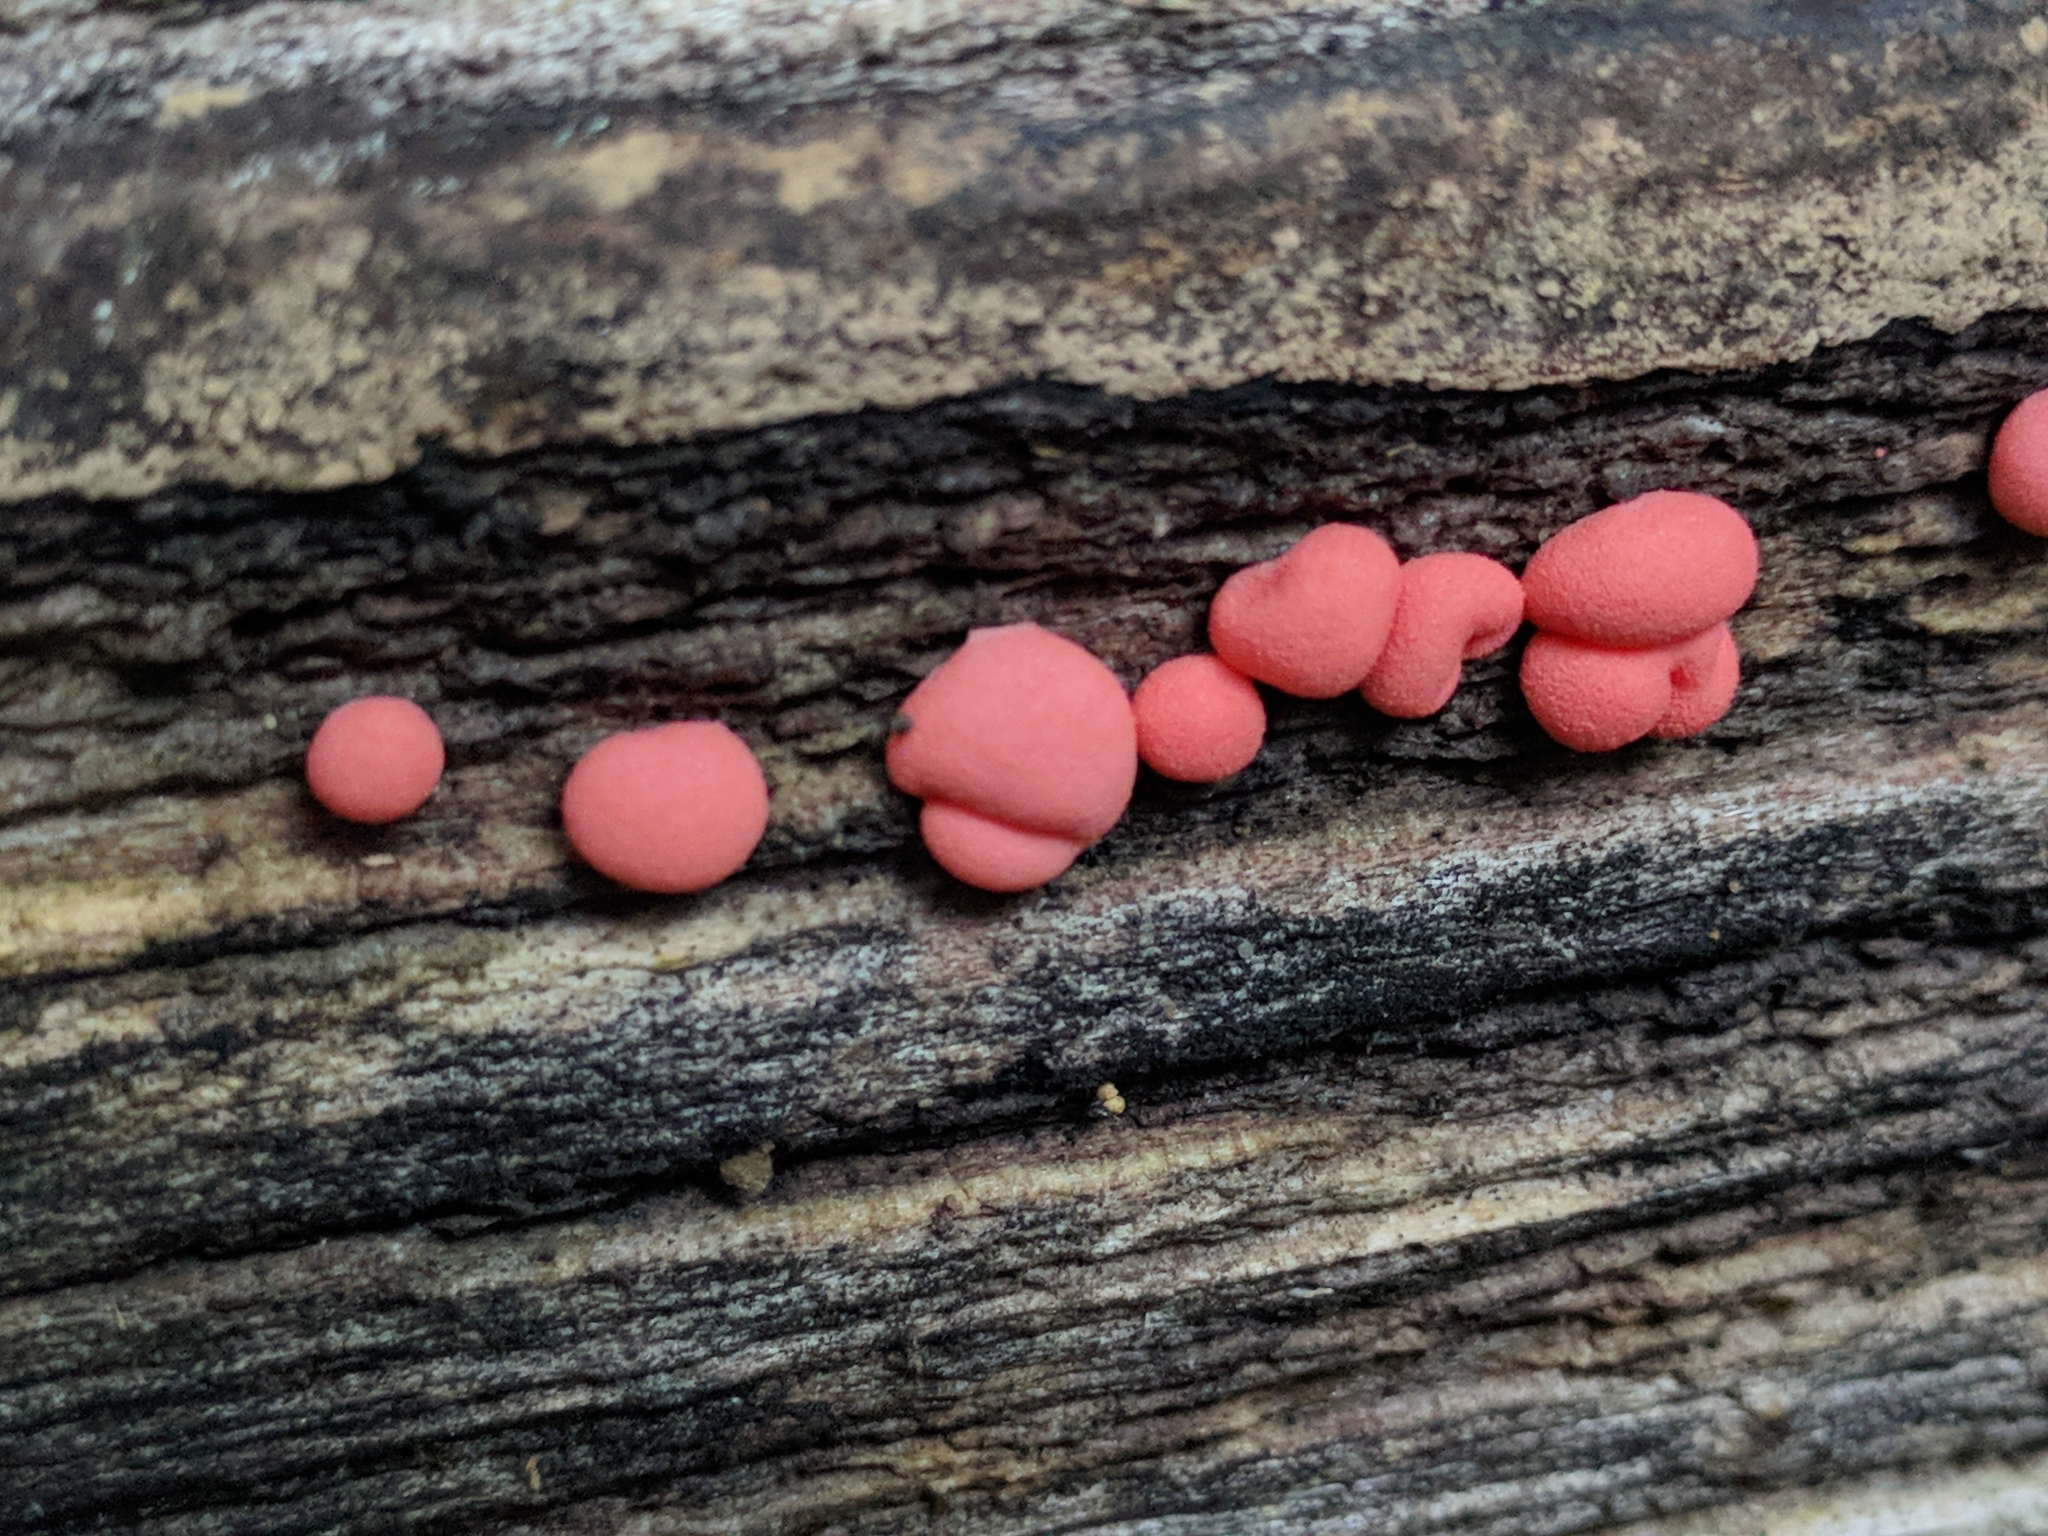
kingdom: Protozoa
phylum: Mycetozoa
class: Myxomycetes
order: Cribrariales
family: Tubiferaceae
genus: Lycogala
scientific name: Lycogala epidendrum
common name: Wolf's milk
